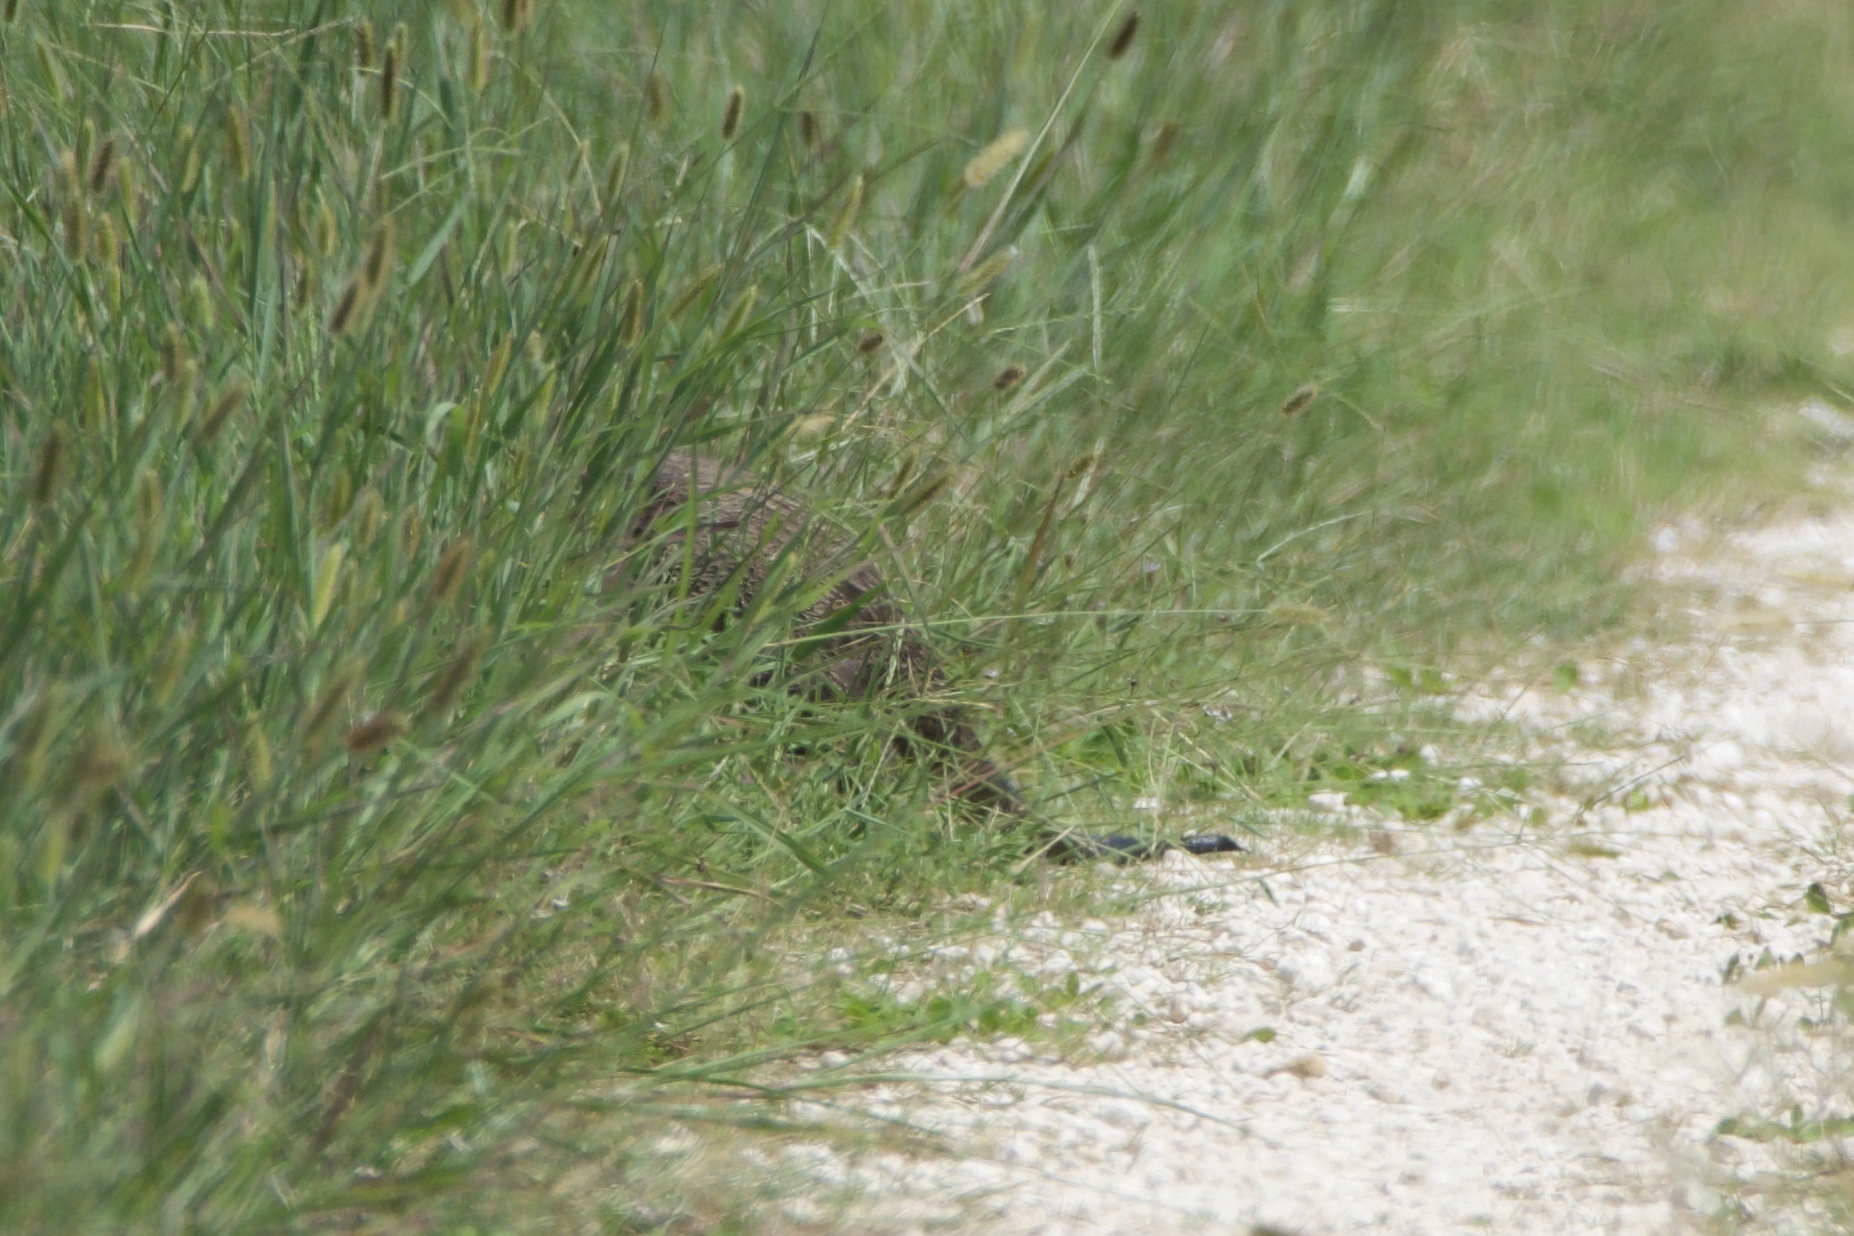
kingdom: Animalia
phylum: Chordata
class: Mammalia
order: Carnivora
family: Mustelidae
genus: Lontra
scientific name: Lontra canadensis
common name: North american river otter
